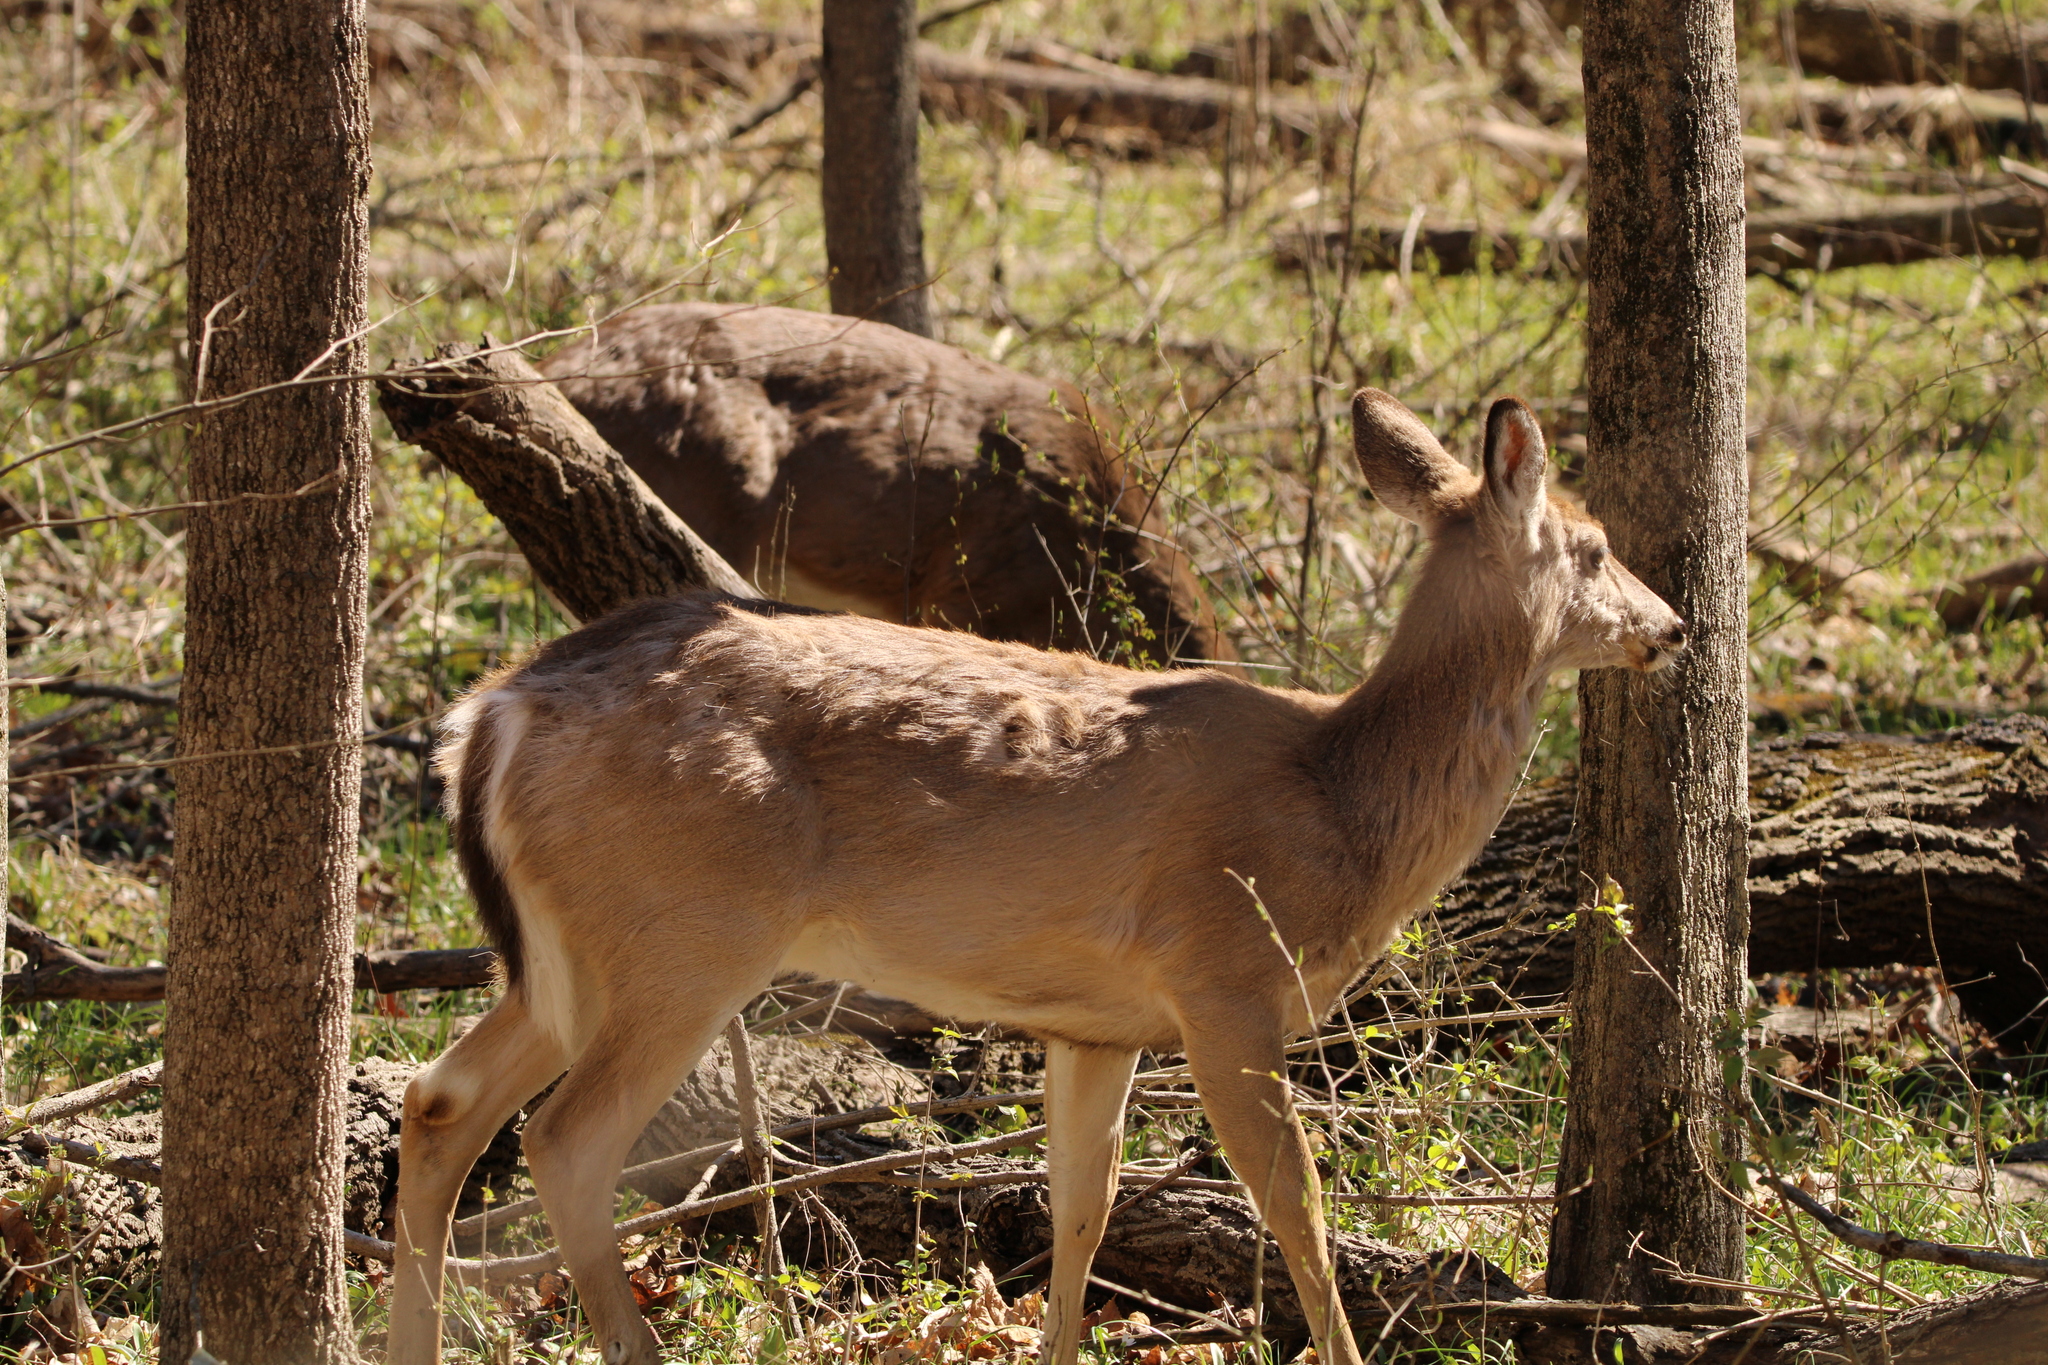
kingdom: Animalia
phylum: Chordata
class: Mammalia
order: Artiodactyla
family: Cervidae
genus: Odocoileus
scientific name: Odocoileus virginianus
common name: White-tailed deer
